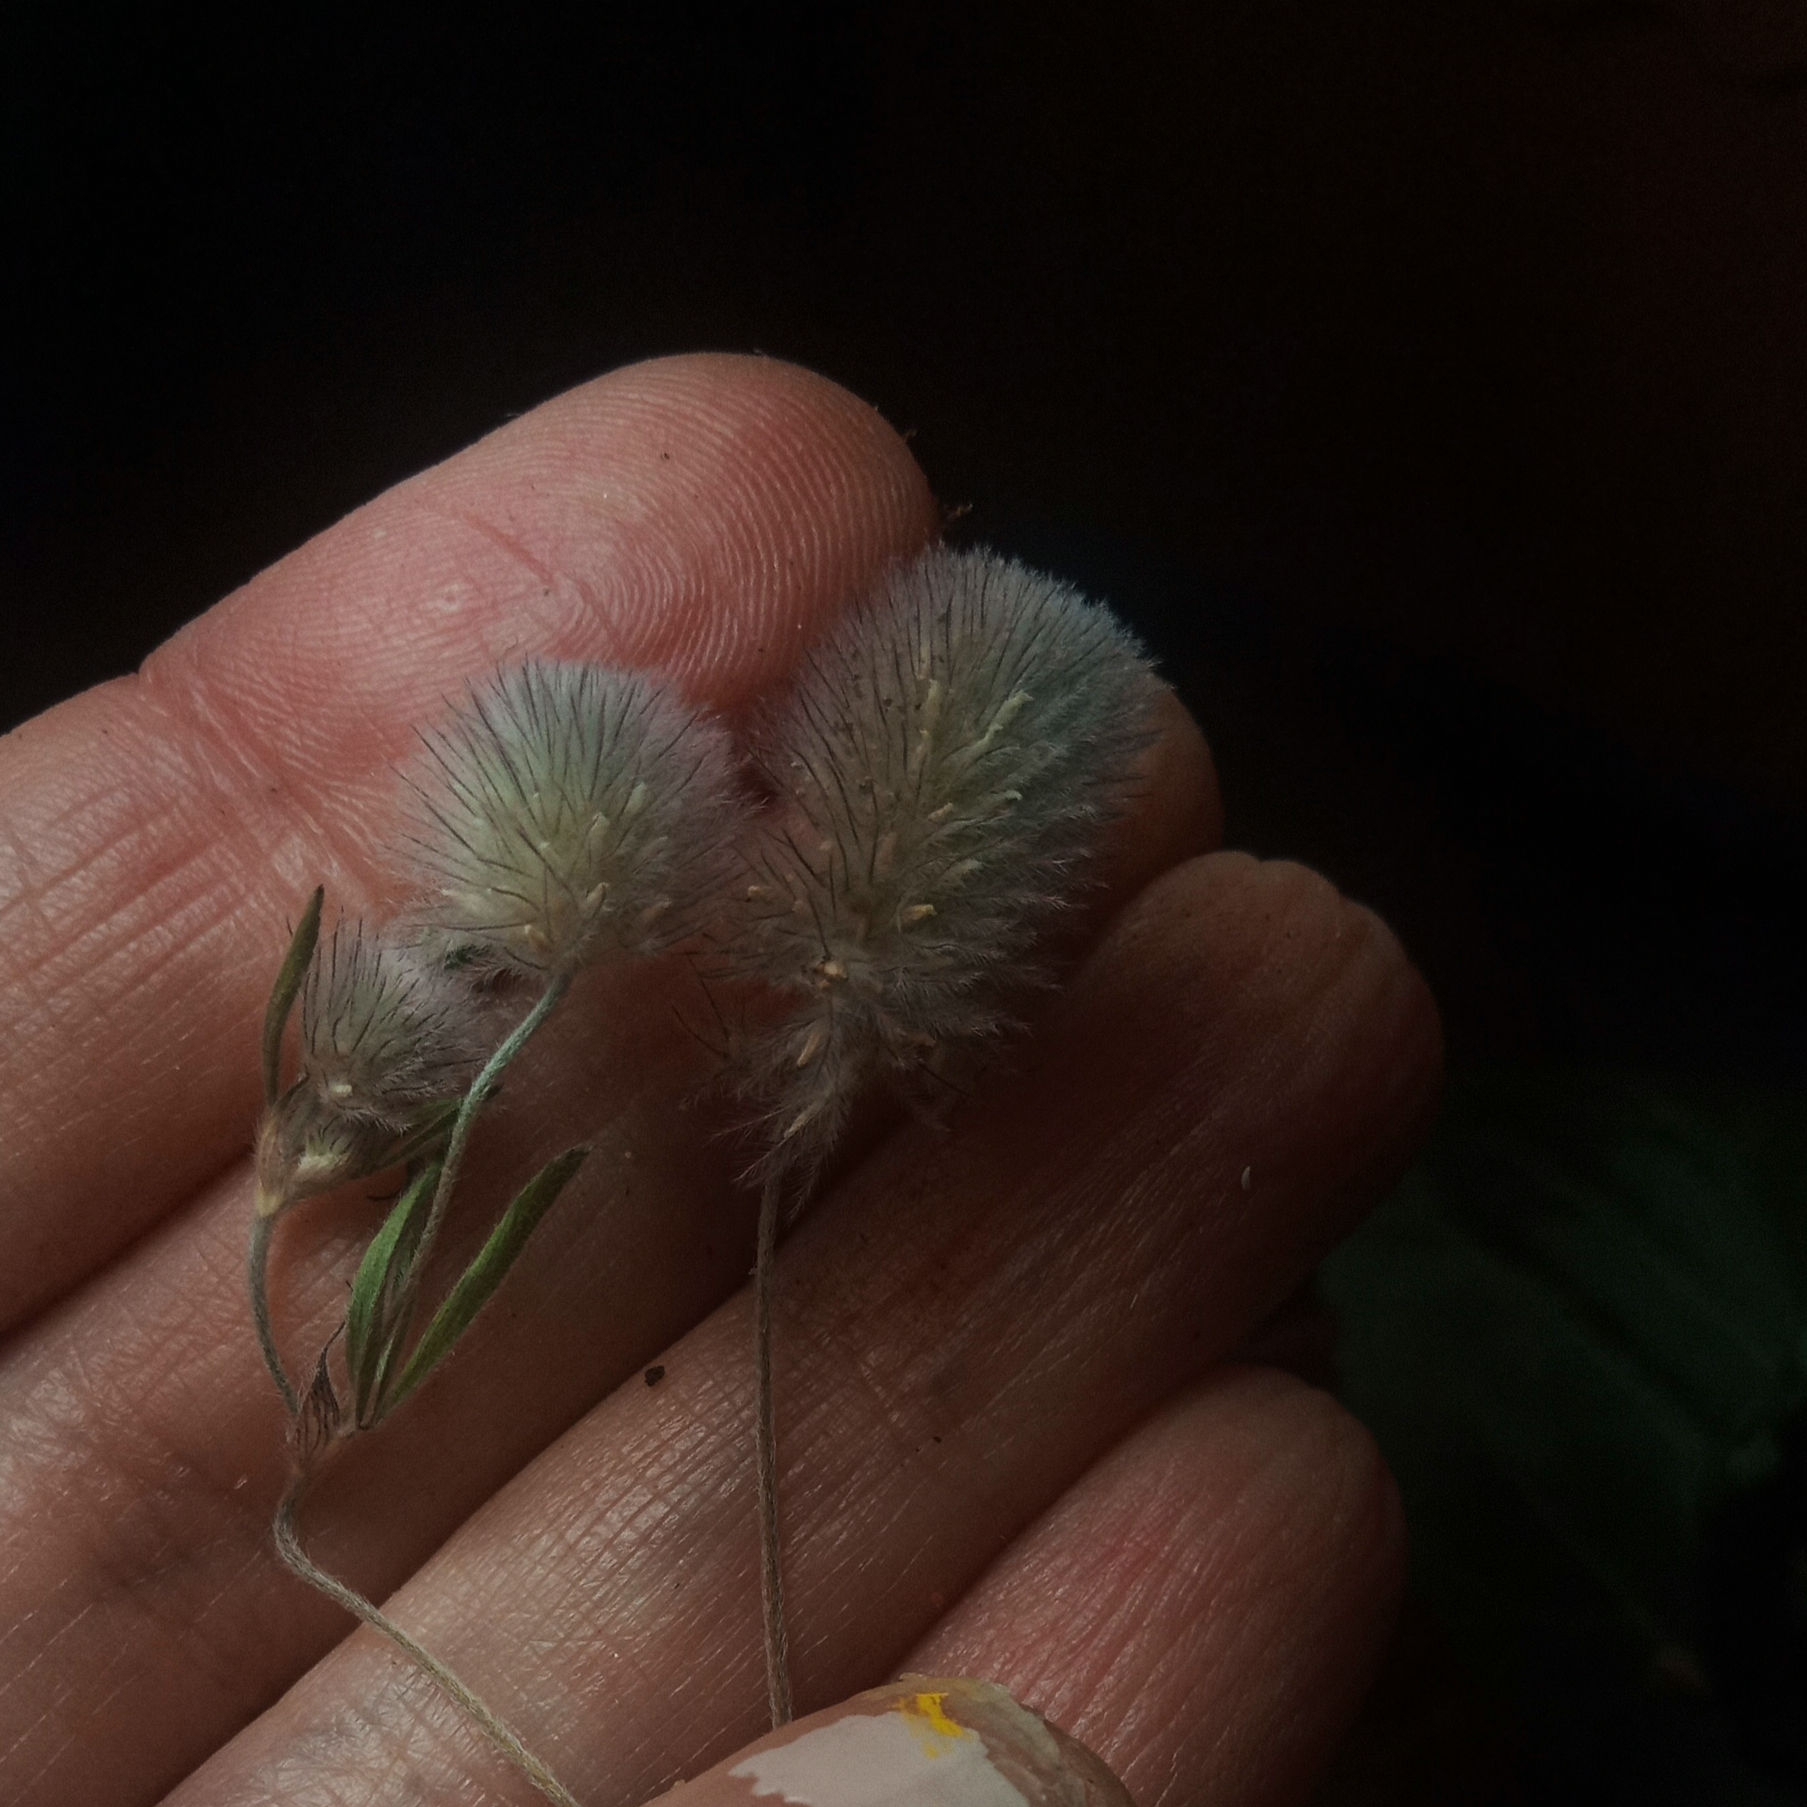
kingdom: Plantae
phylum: Tracheophyta
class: Magnoliopsida
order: Fabales
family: Fabaceae
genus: Trifolium
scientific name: Trifolium arvense
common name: Hare's-foot clover
